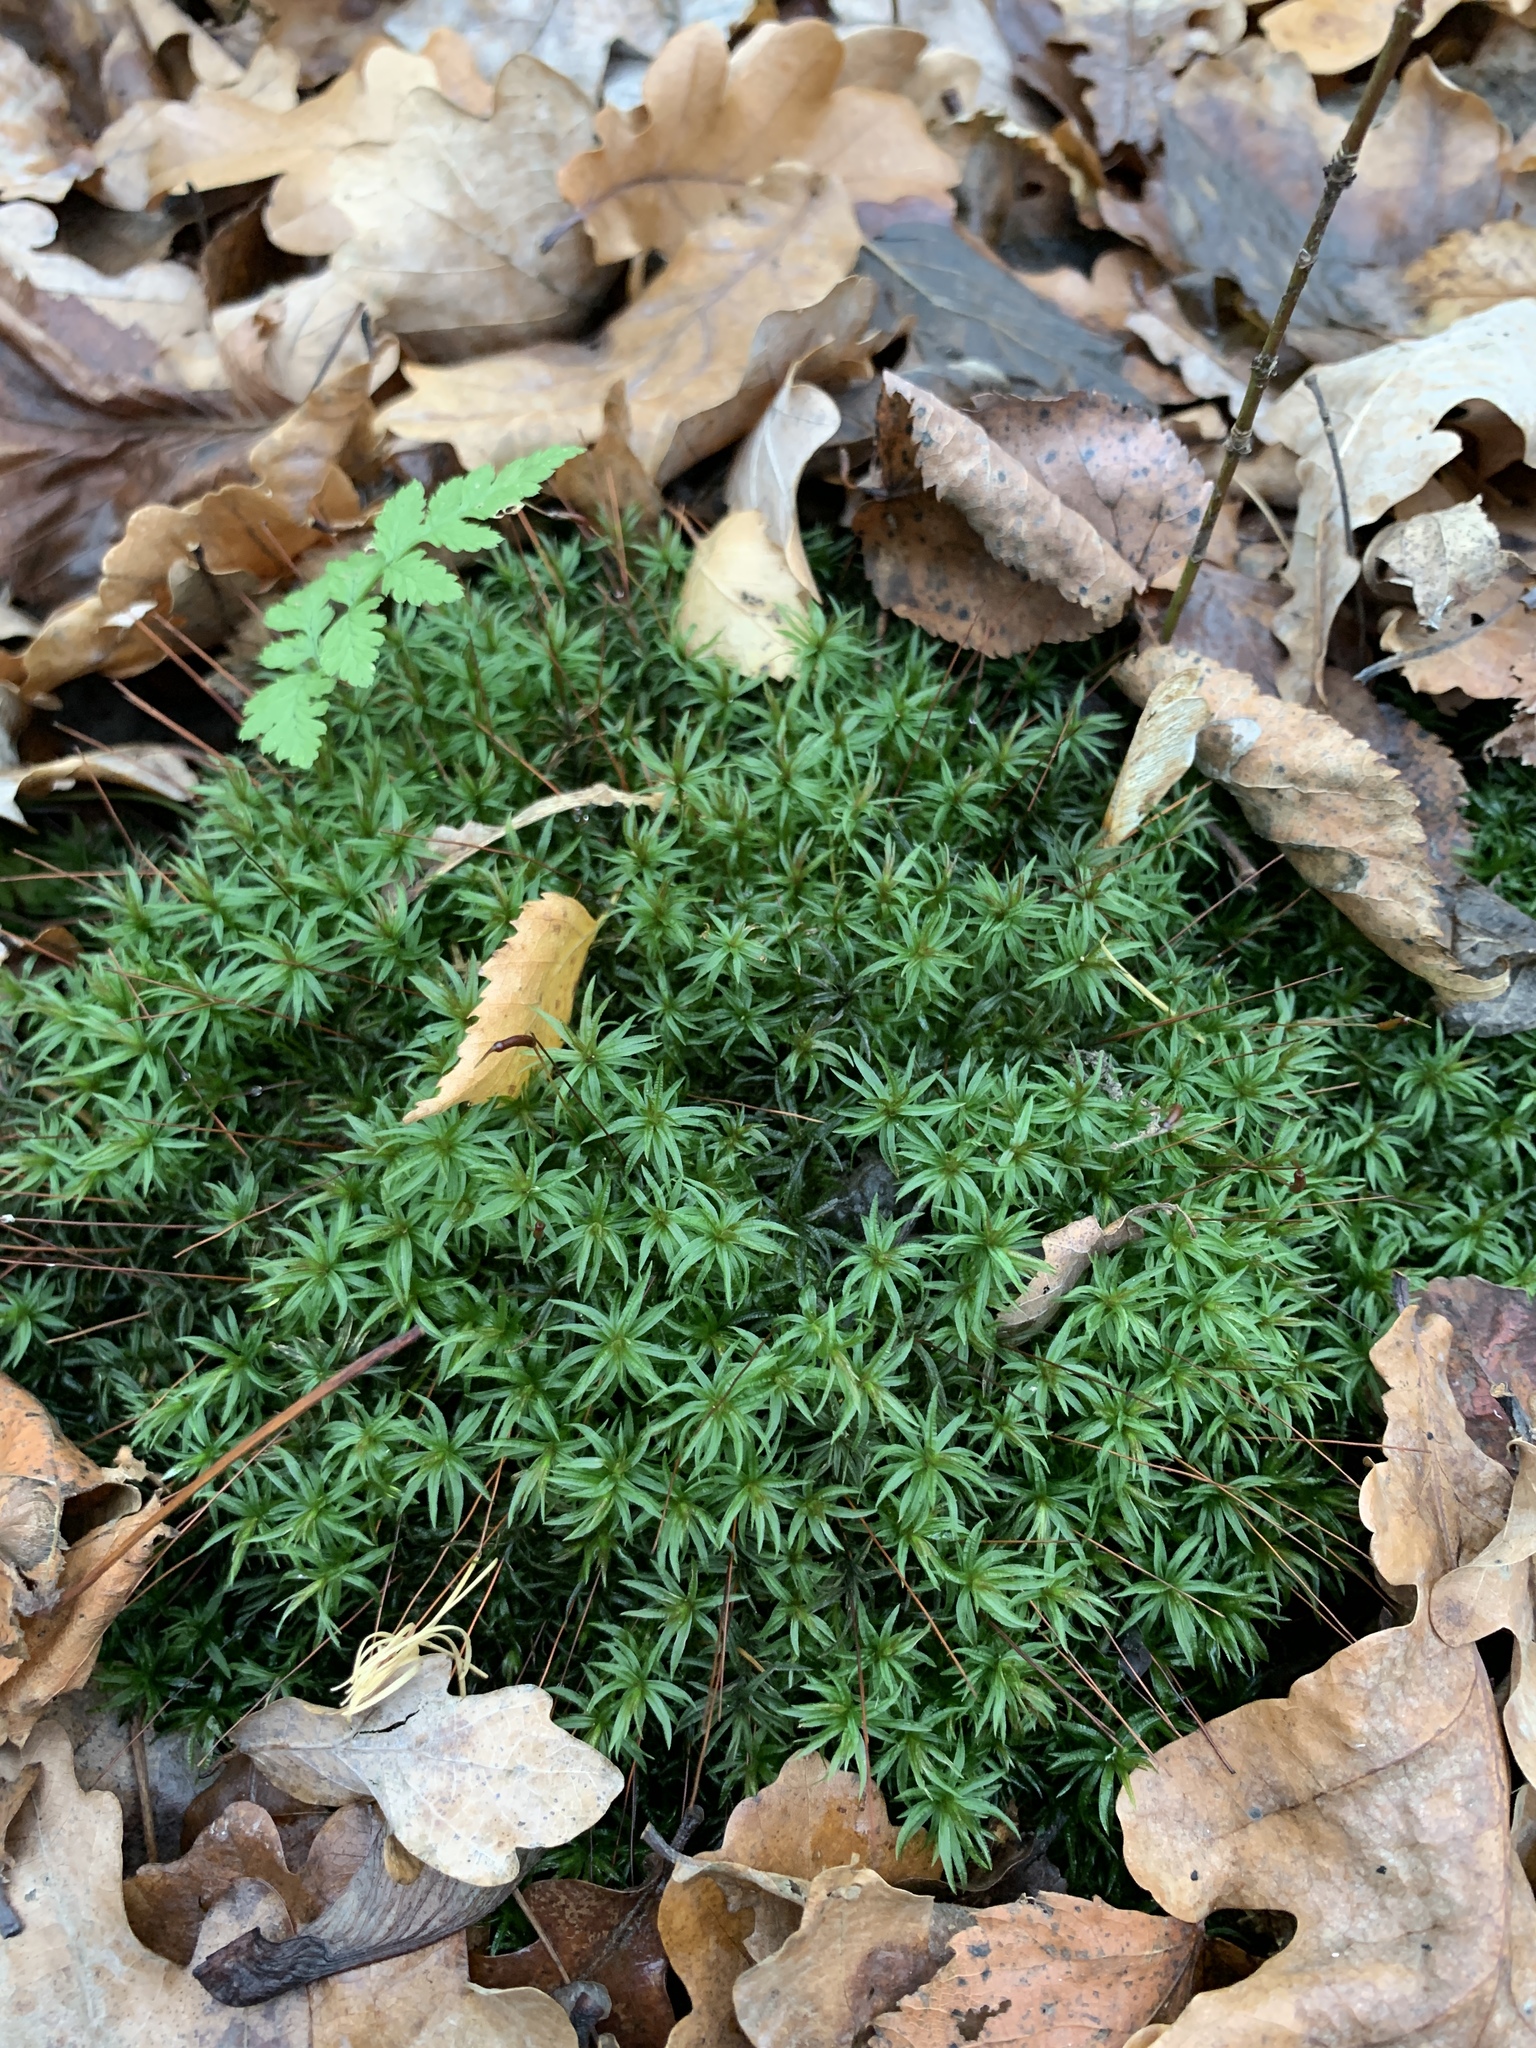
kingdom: Plantae
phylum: Bryophyta
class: Polytrichopsida
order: Polytrichales
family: Polytrichaceae
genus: Atrichum
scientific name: Atrichum undulatum
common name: Common smoothcap
